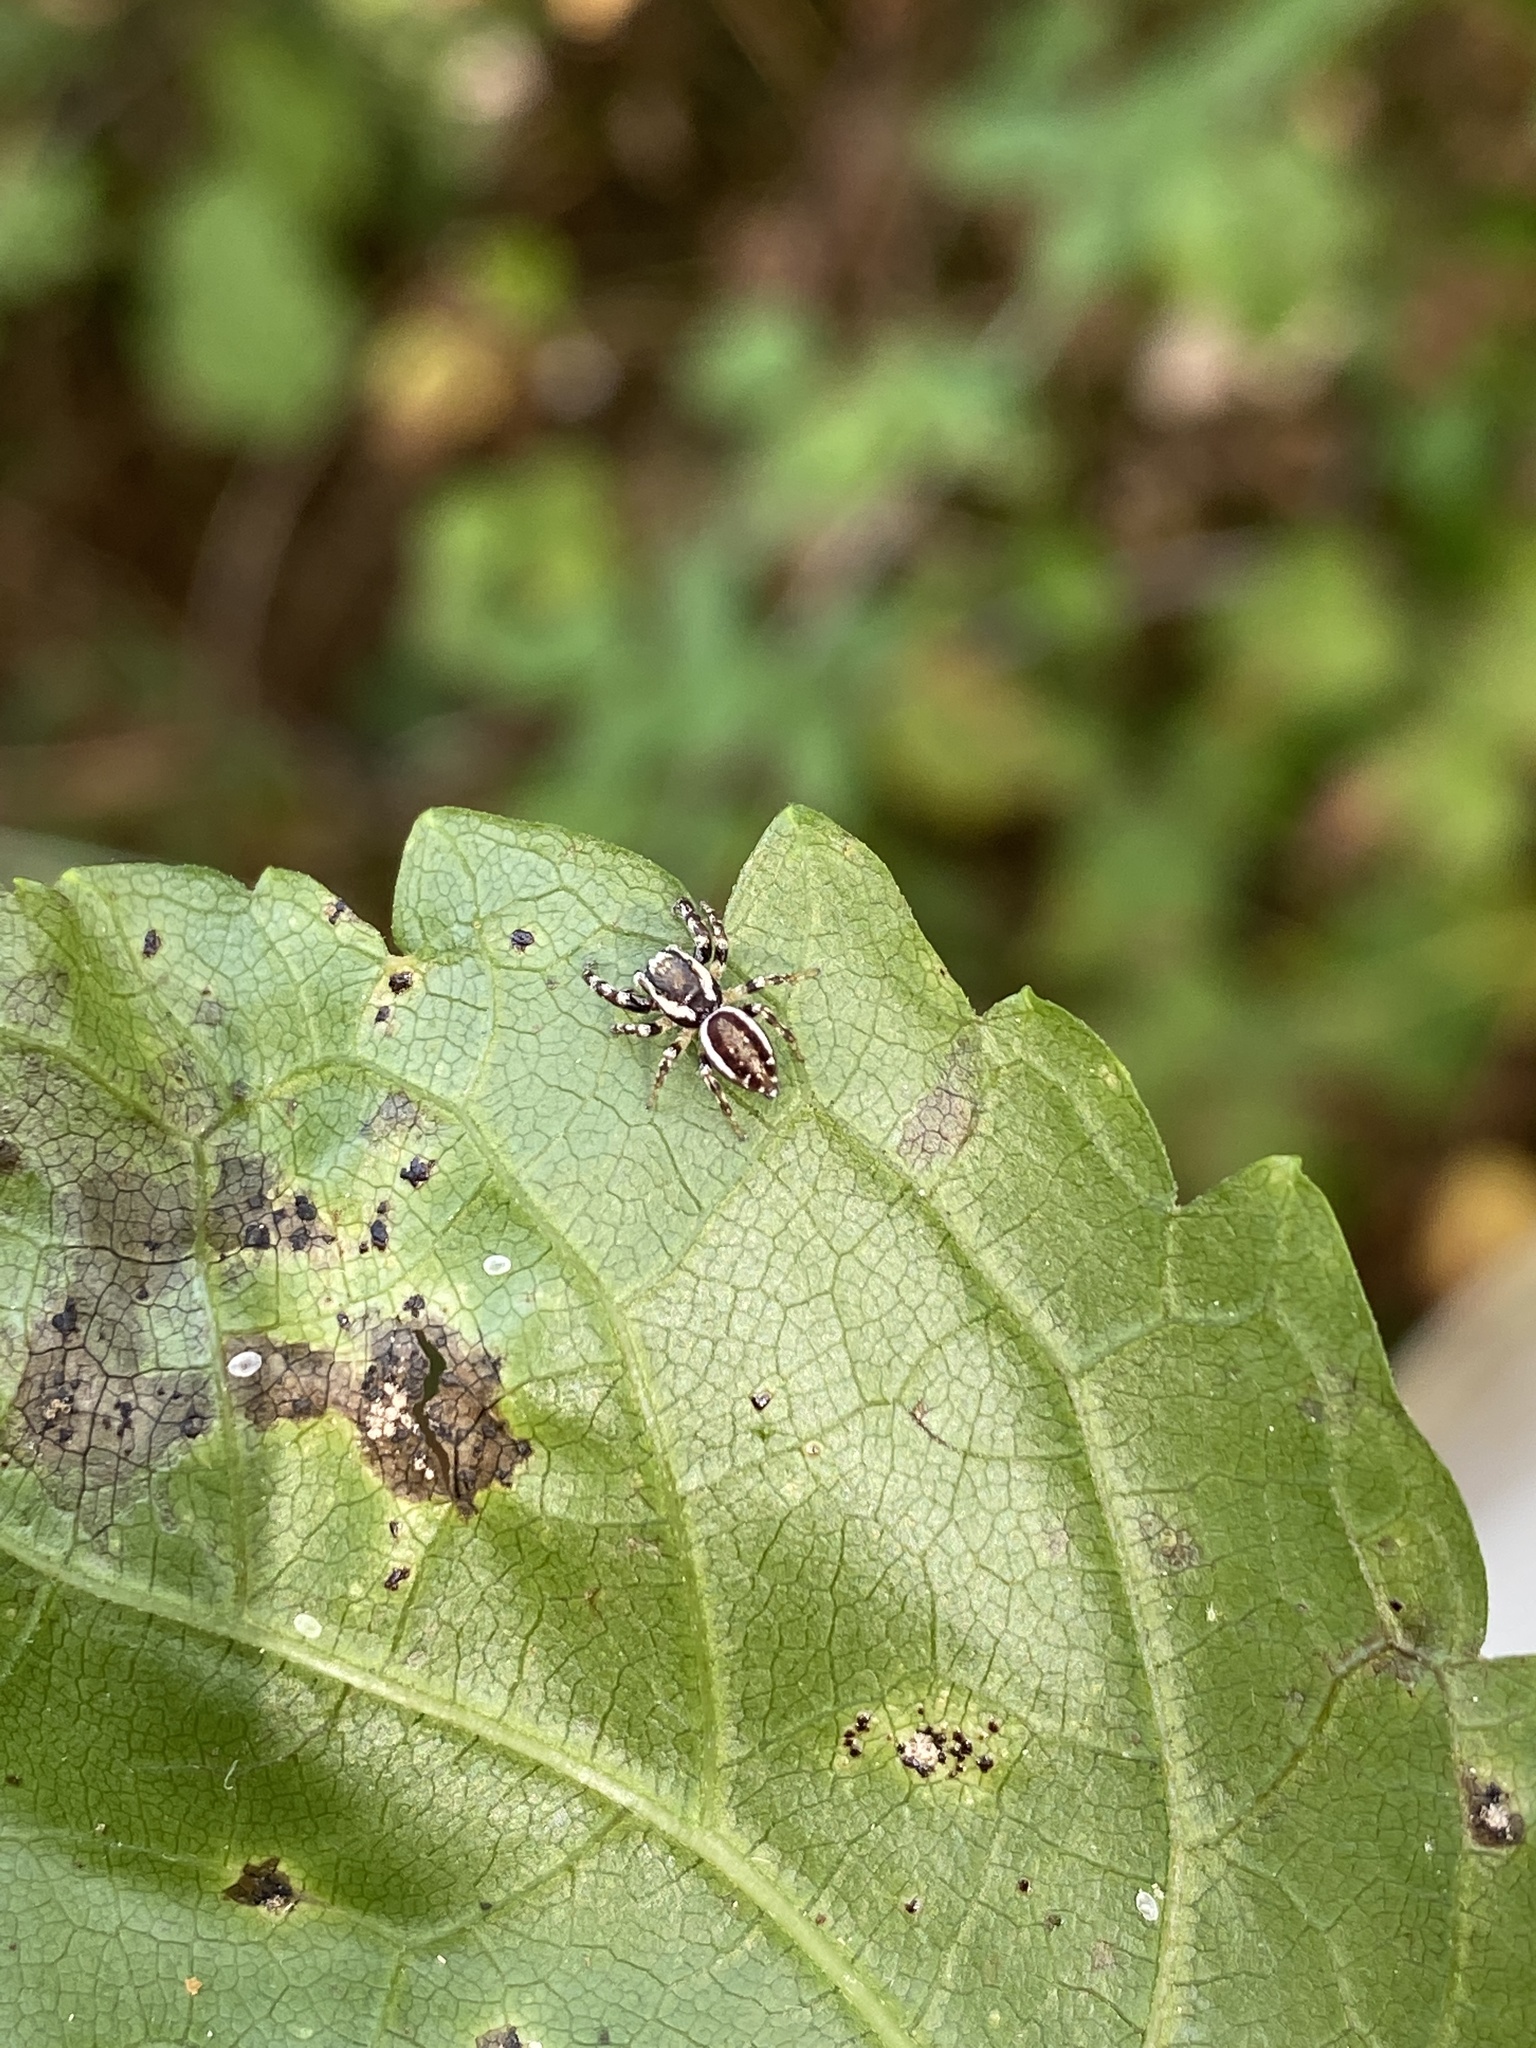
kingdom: Animalia
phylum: Arthropoda
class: Arachnida
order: Araneae
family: Salticidae
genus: Pelegrina
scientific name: Pelegrina proterva
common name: Common white-cheeked jumping spider
